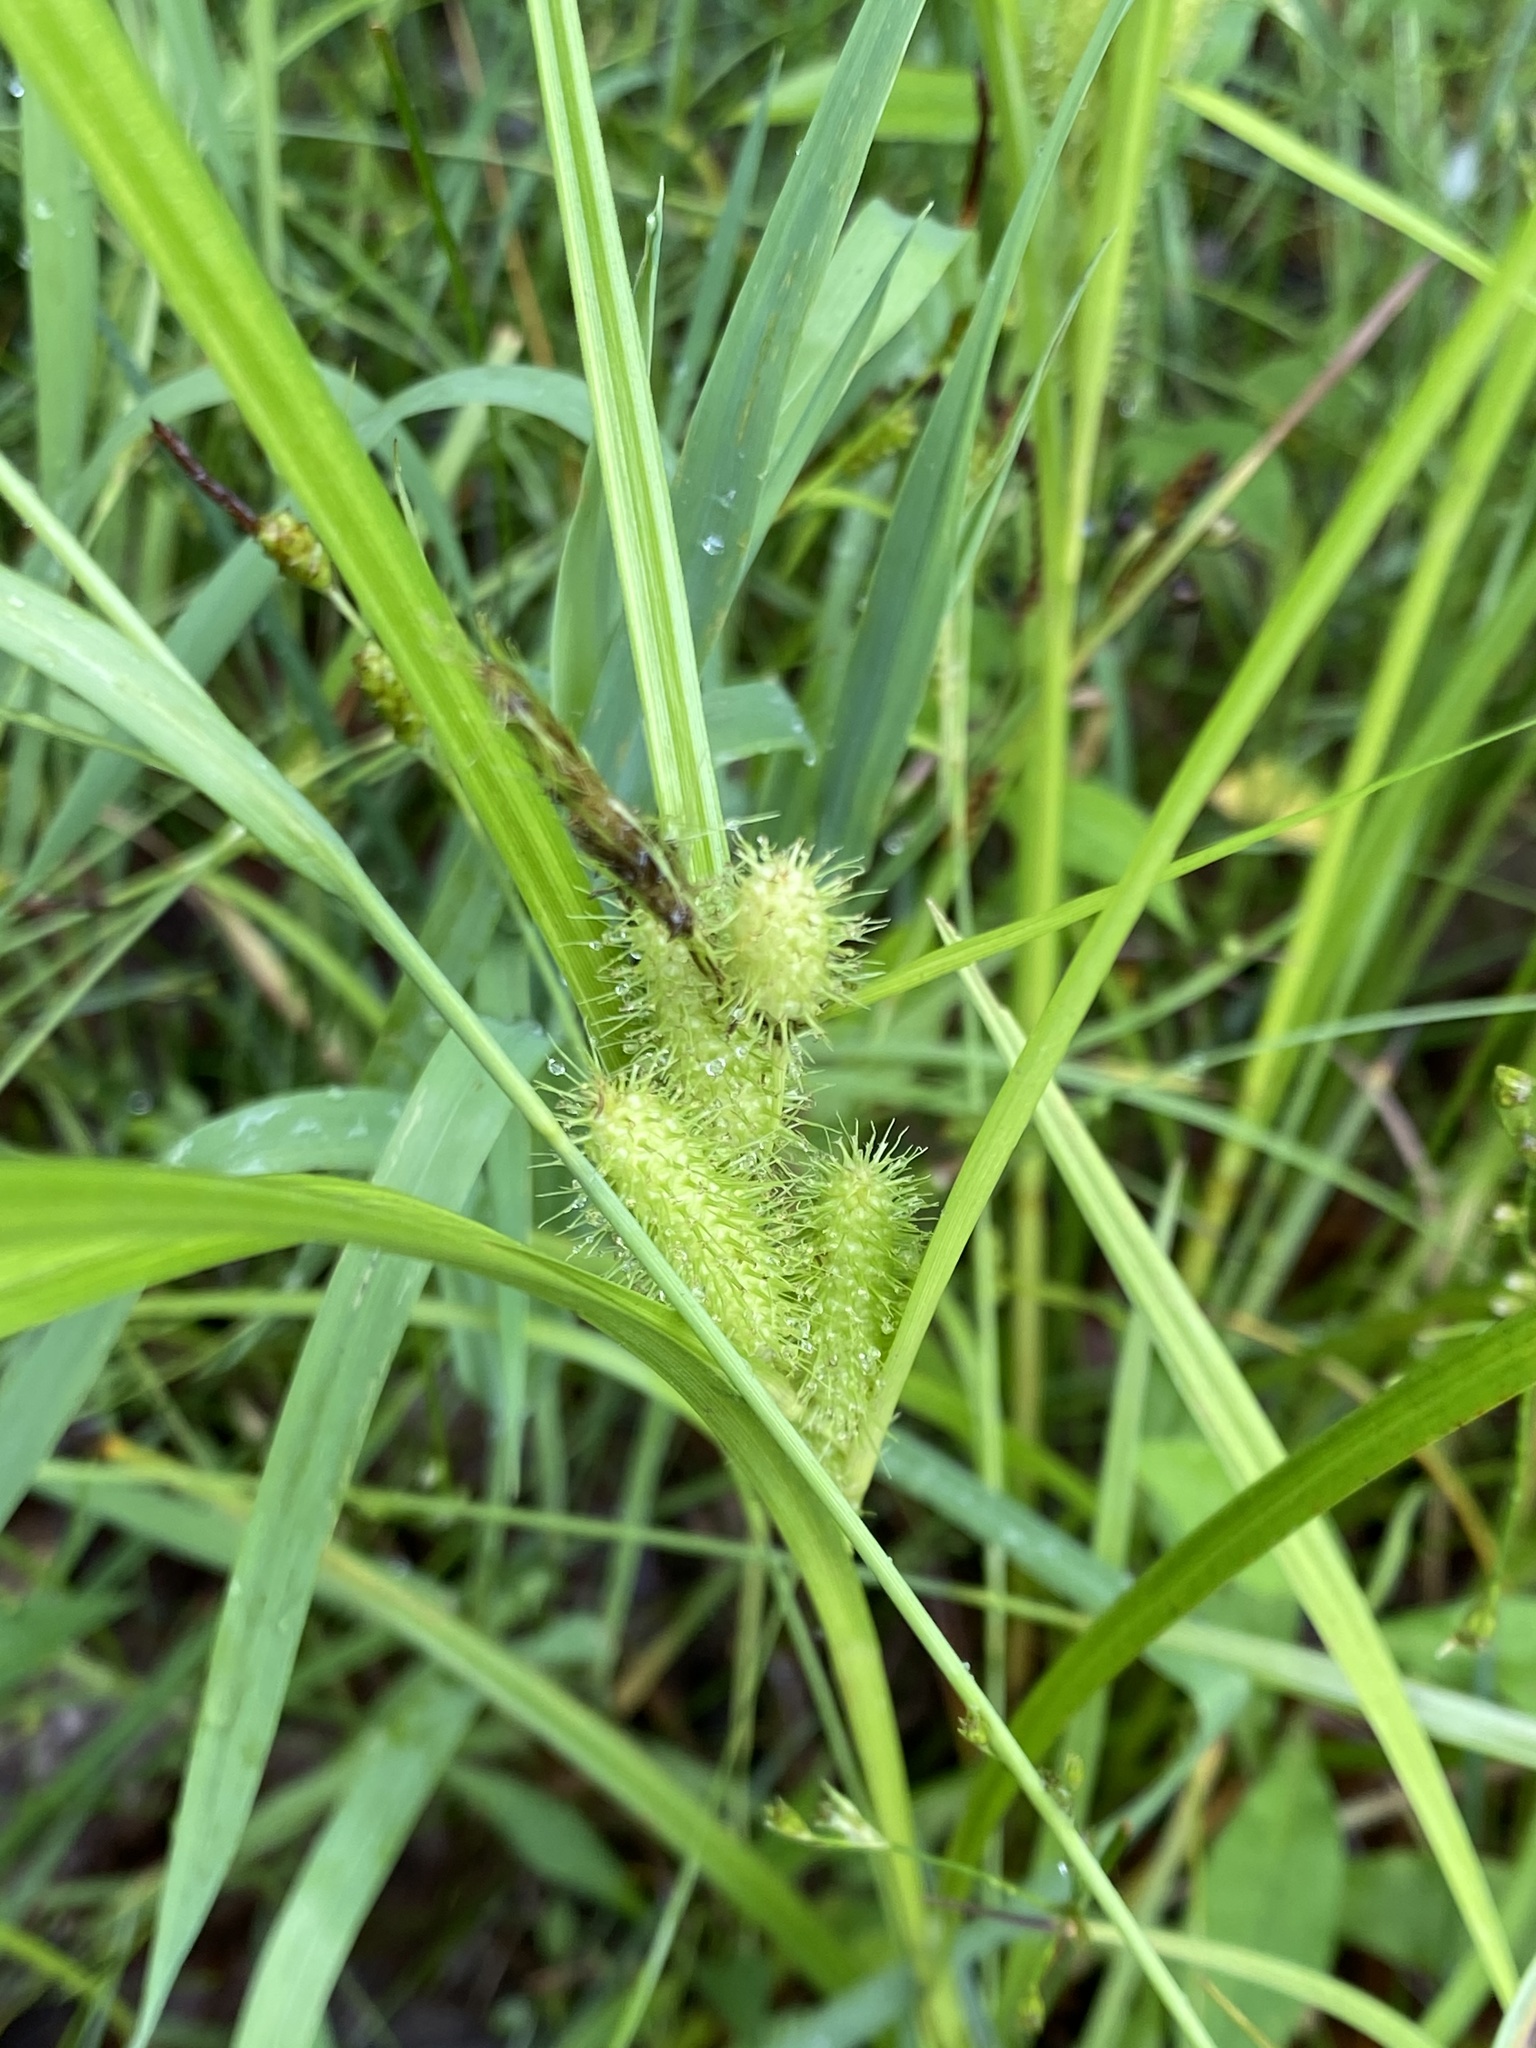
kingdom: Plantae
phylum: Tracheophyta
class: Liliopsida
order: Poales
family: Cyperaceae
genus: Carex
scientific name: Carex frankii
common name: Frank's sedge
